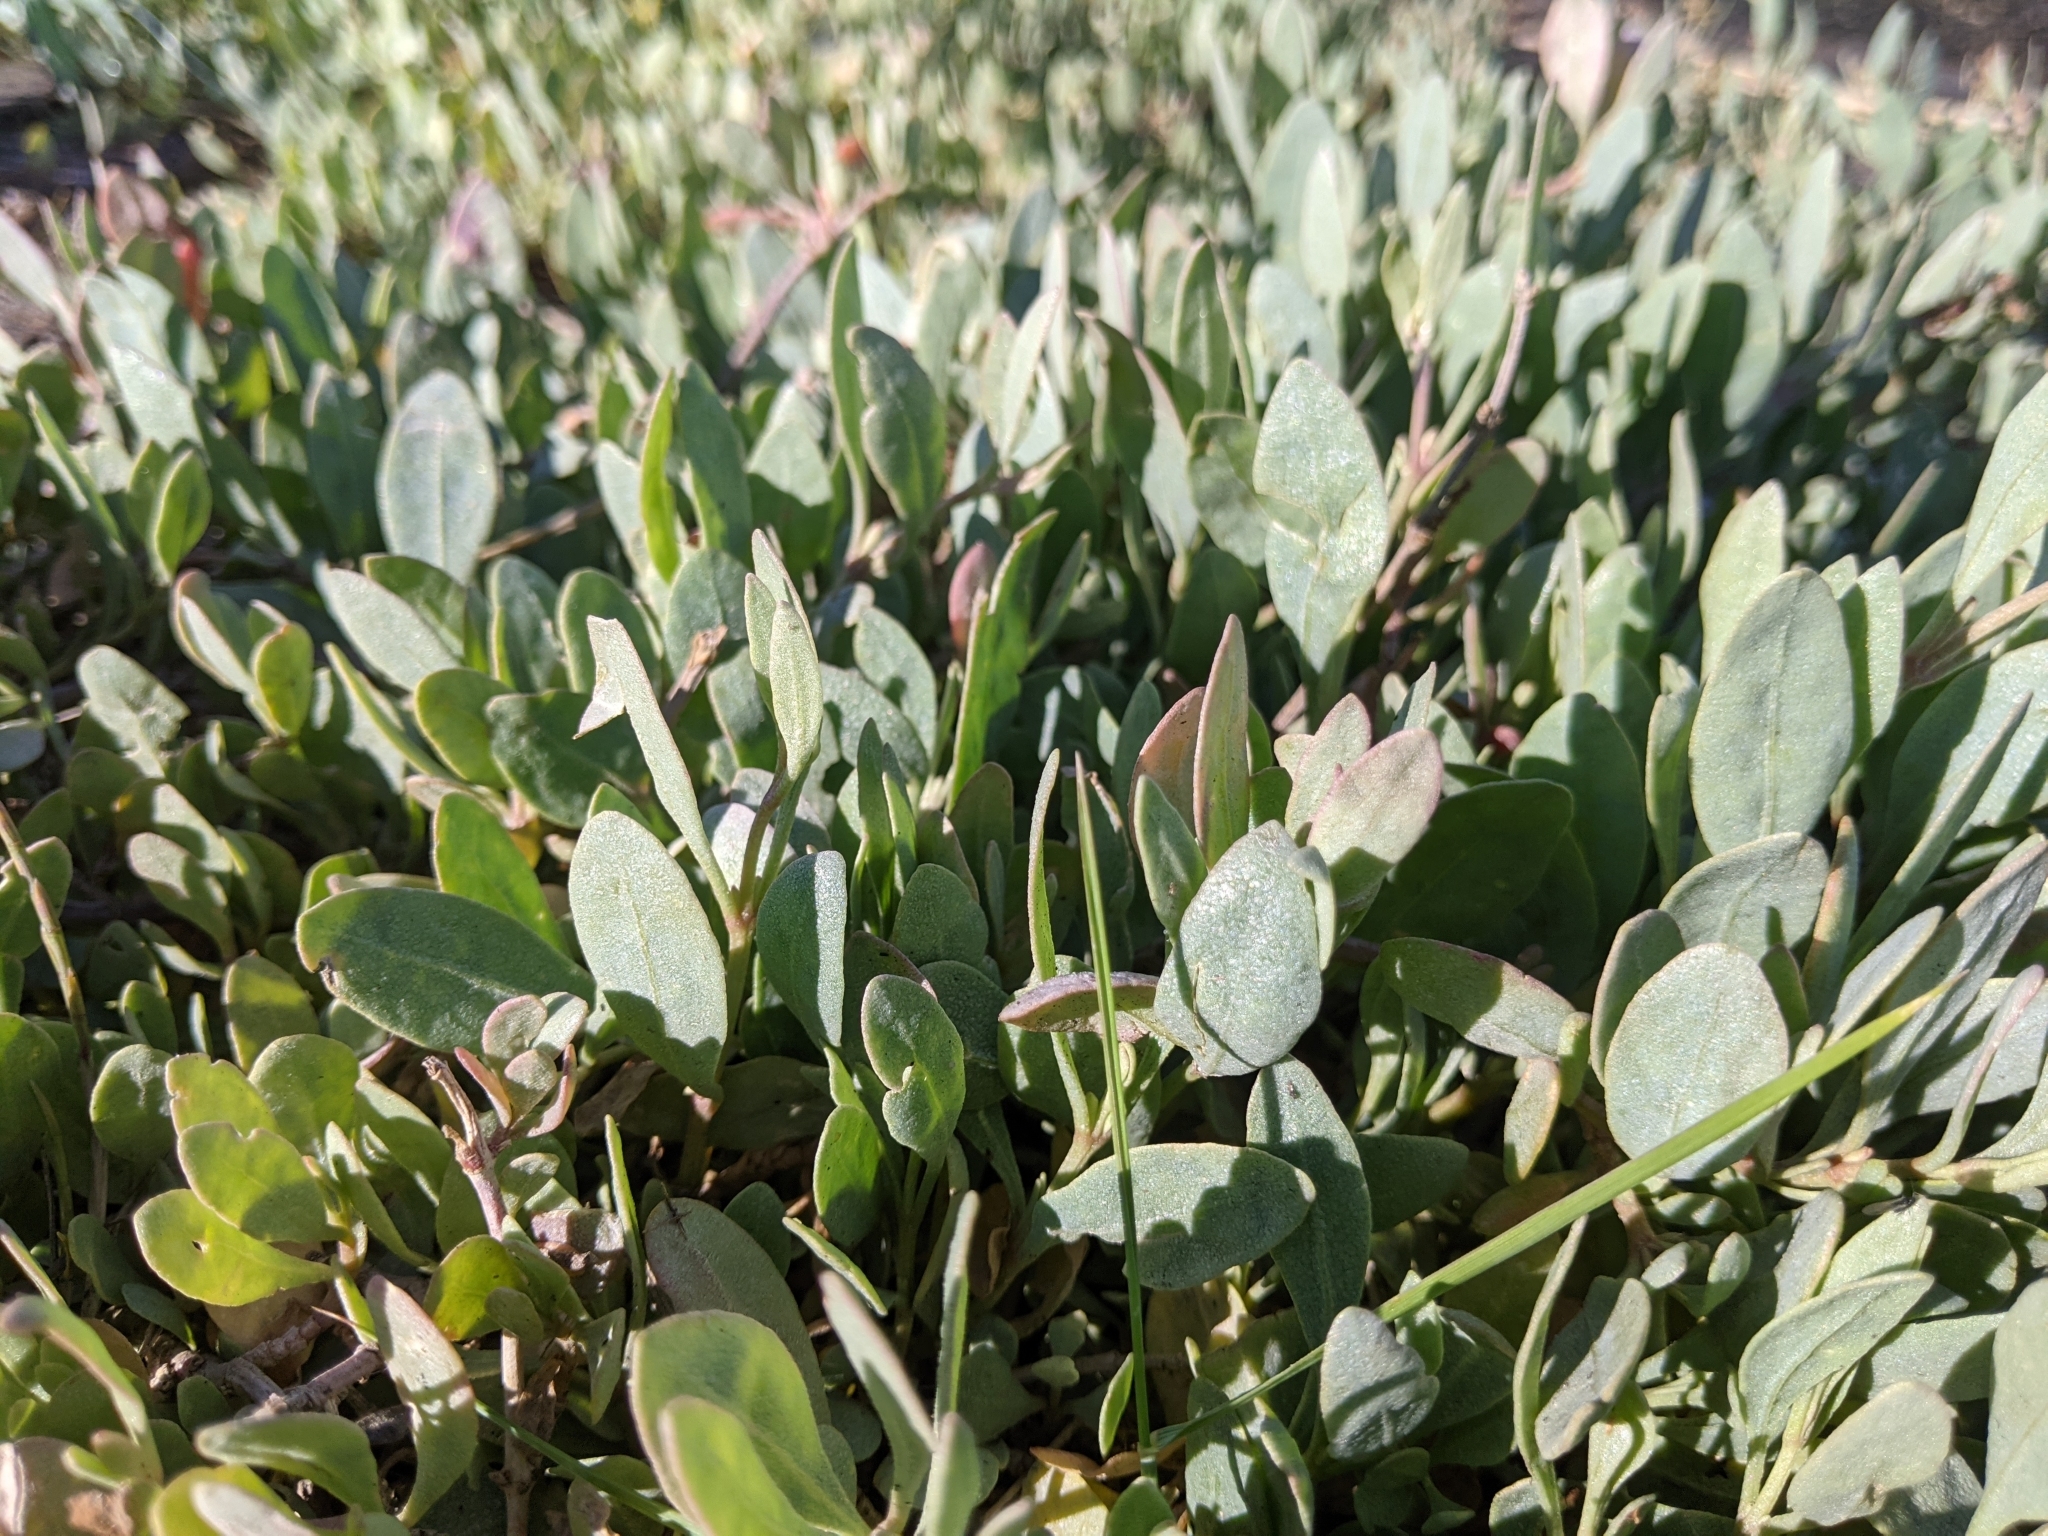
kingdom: Plantae
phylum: Tracheophyta
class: Magnoliopsida
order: Caryophyllales
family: Amaranthaceae
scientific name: Amaranthaceae
